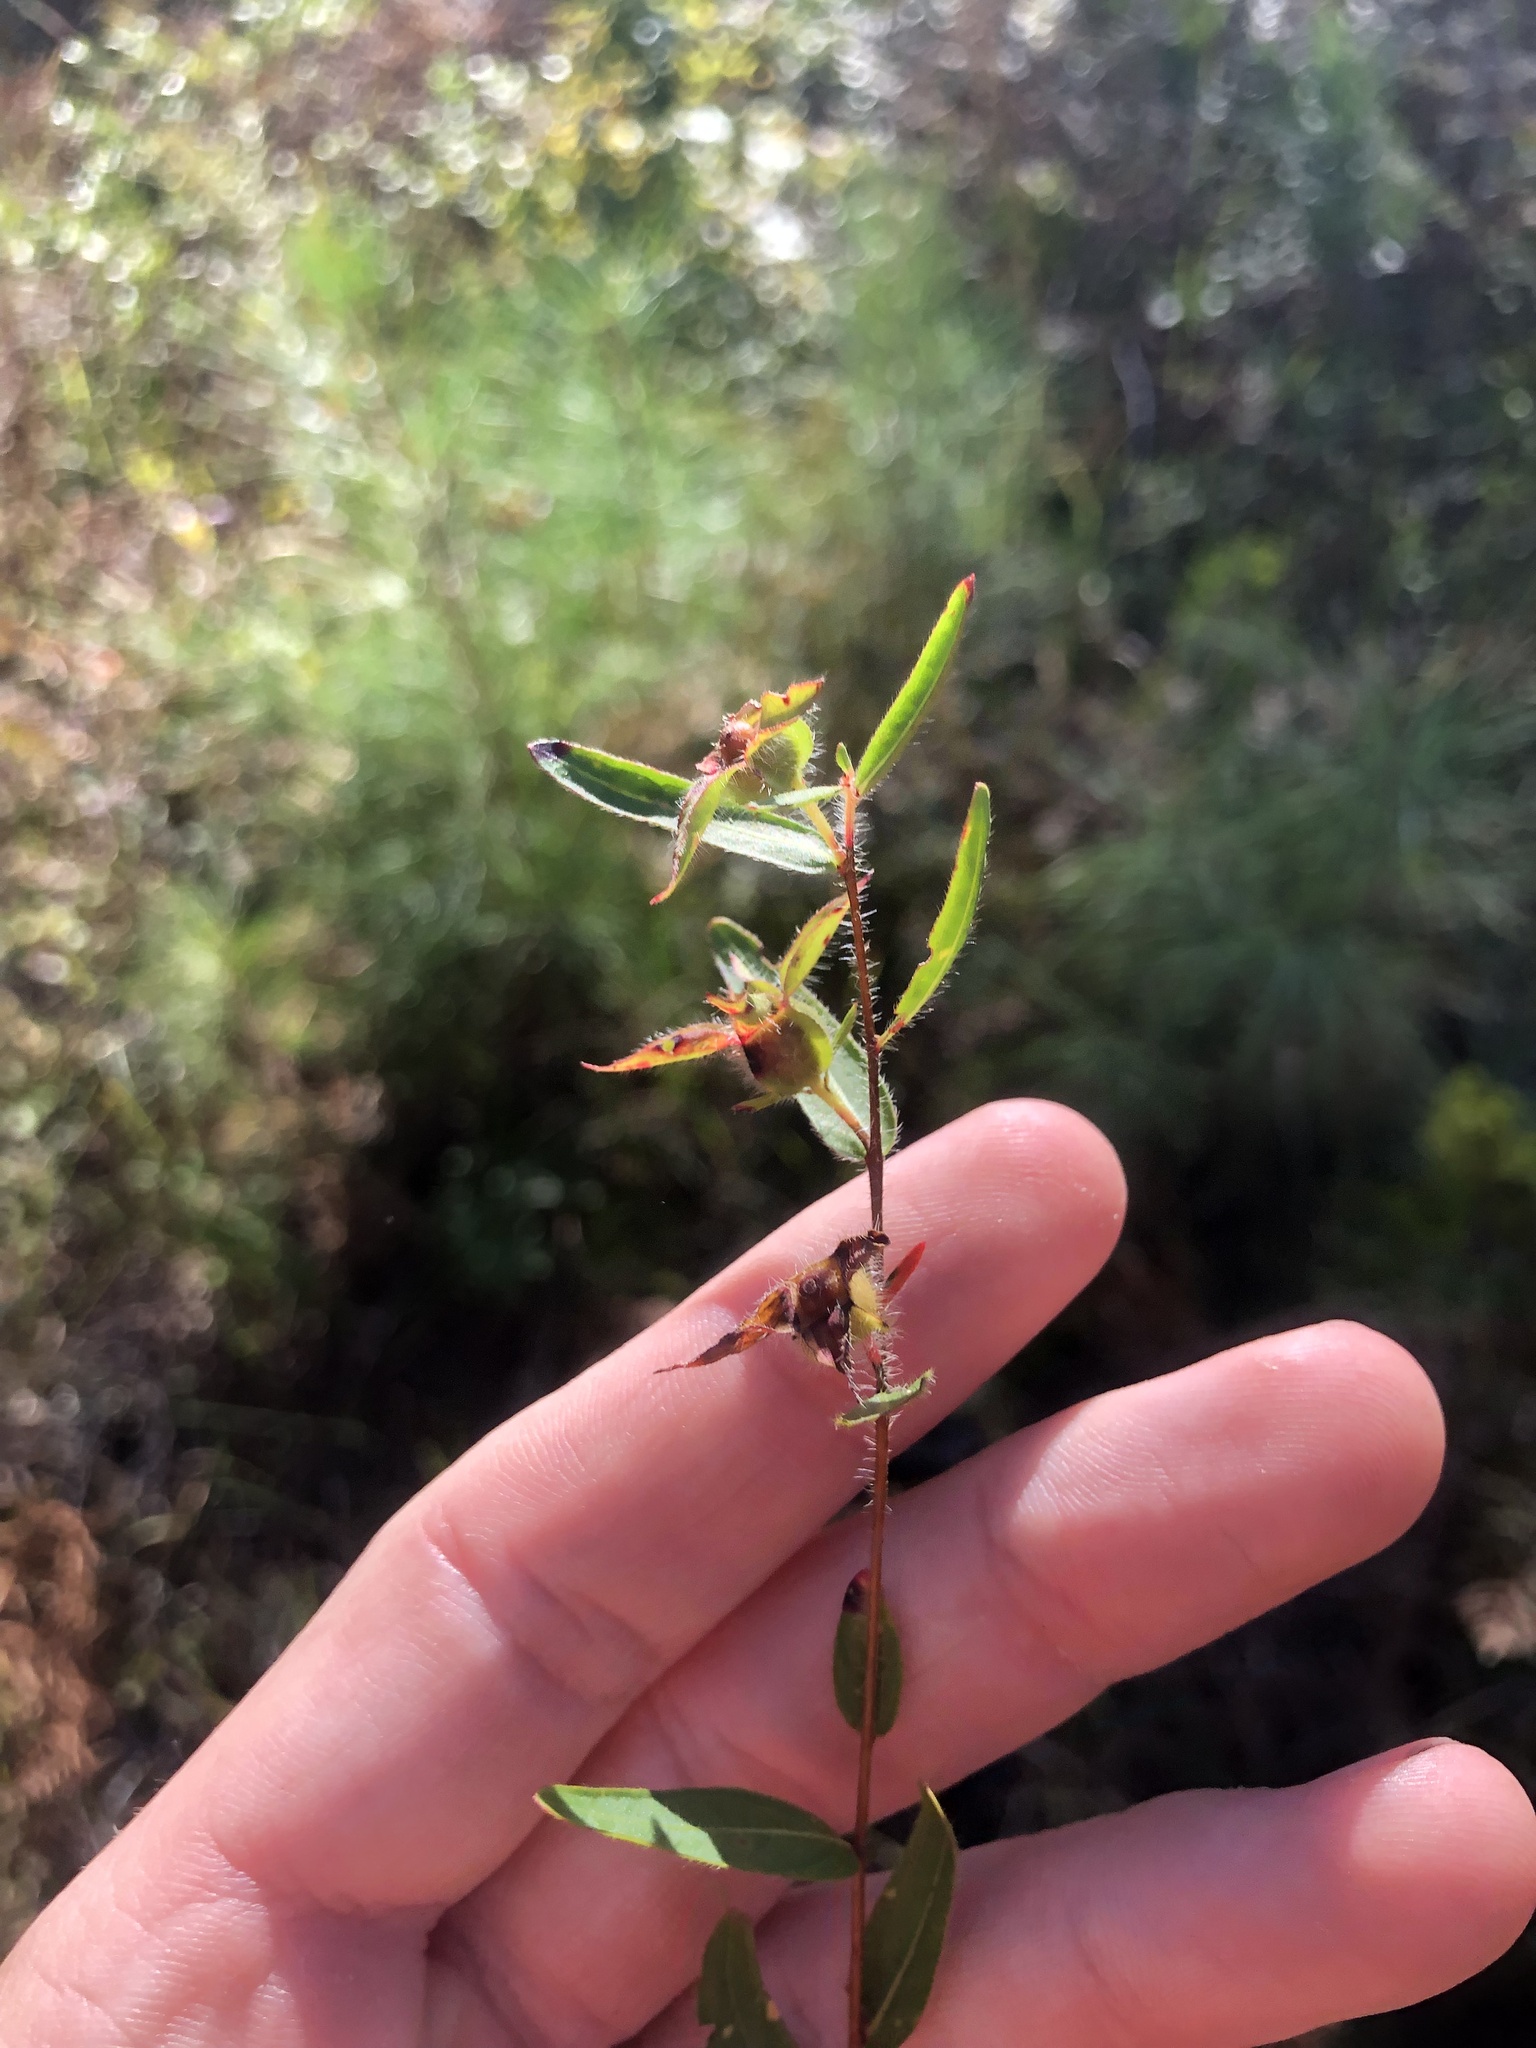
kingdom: Plantae
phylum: Tracheophyta
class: Magnoliopsida
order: Myrtales
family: Onagraceae
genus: Ludwigia
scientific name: Ludwigia hirtella
